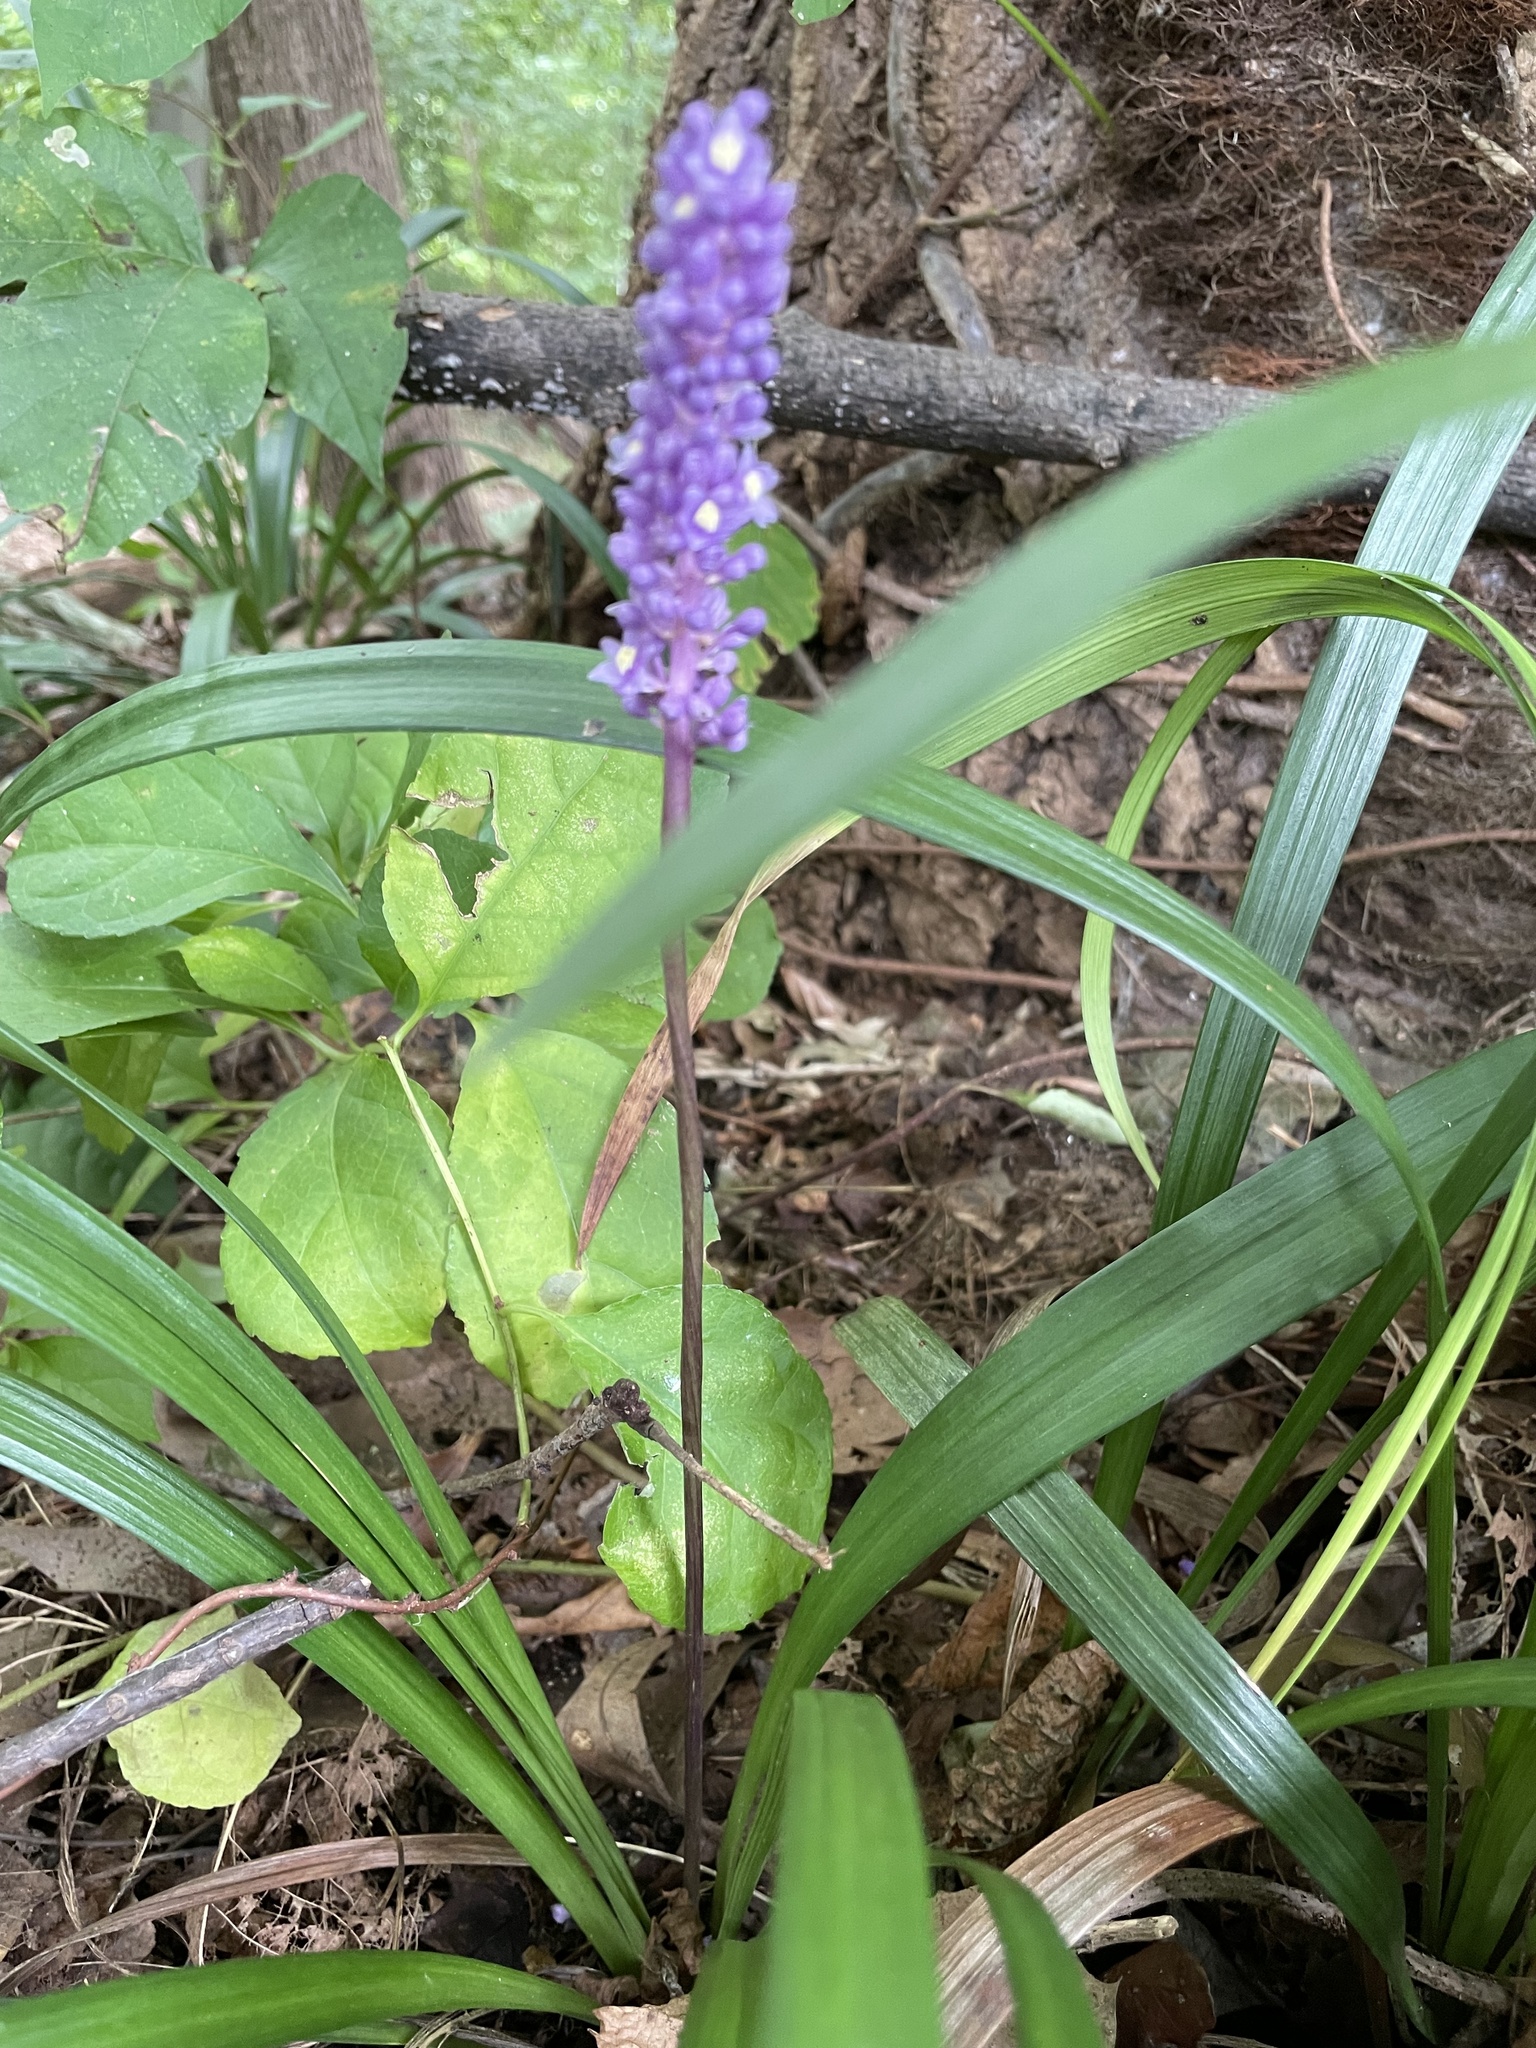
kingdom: Plantae
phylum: Tracheophyta
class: Liliopsida
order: Asparagales
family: Asparagaceae
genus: Liriope
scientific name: Liriope muscari
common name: Big blue lilyturf
